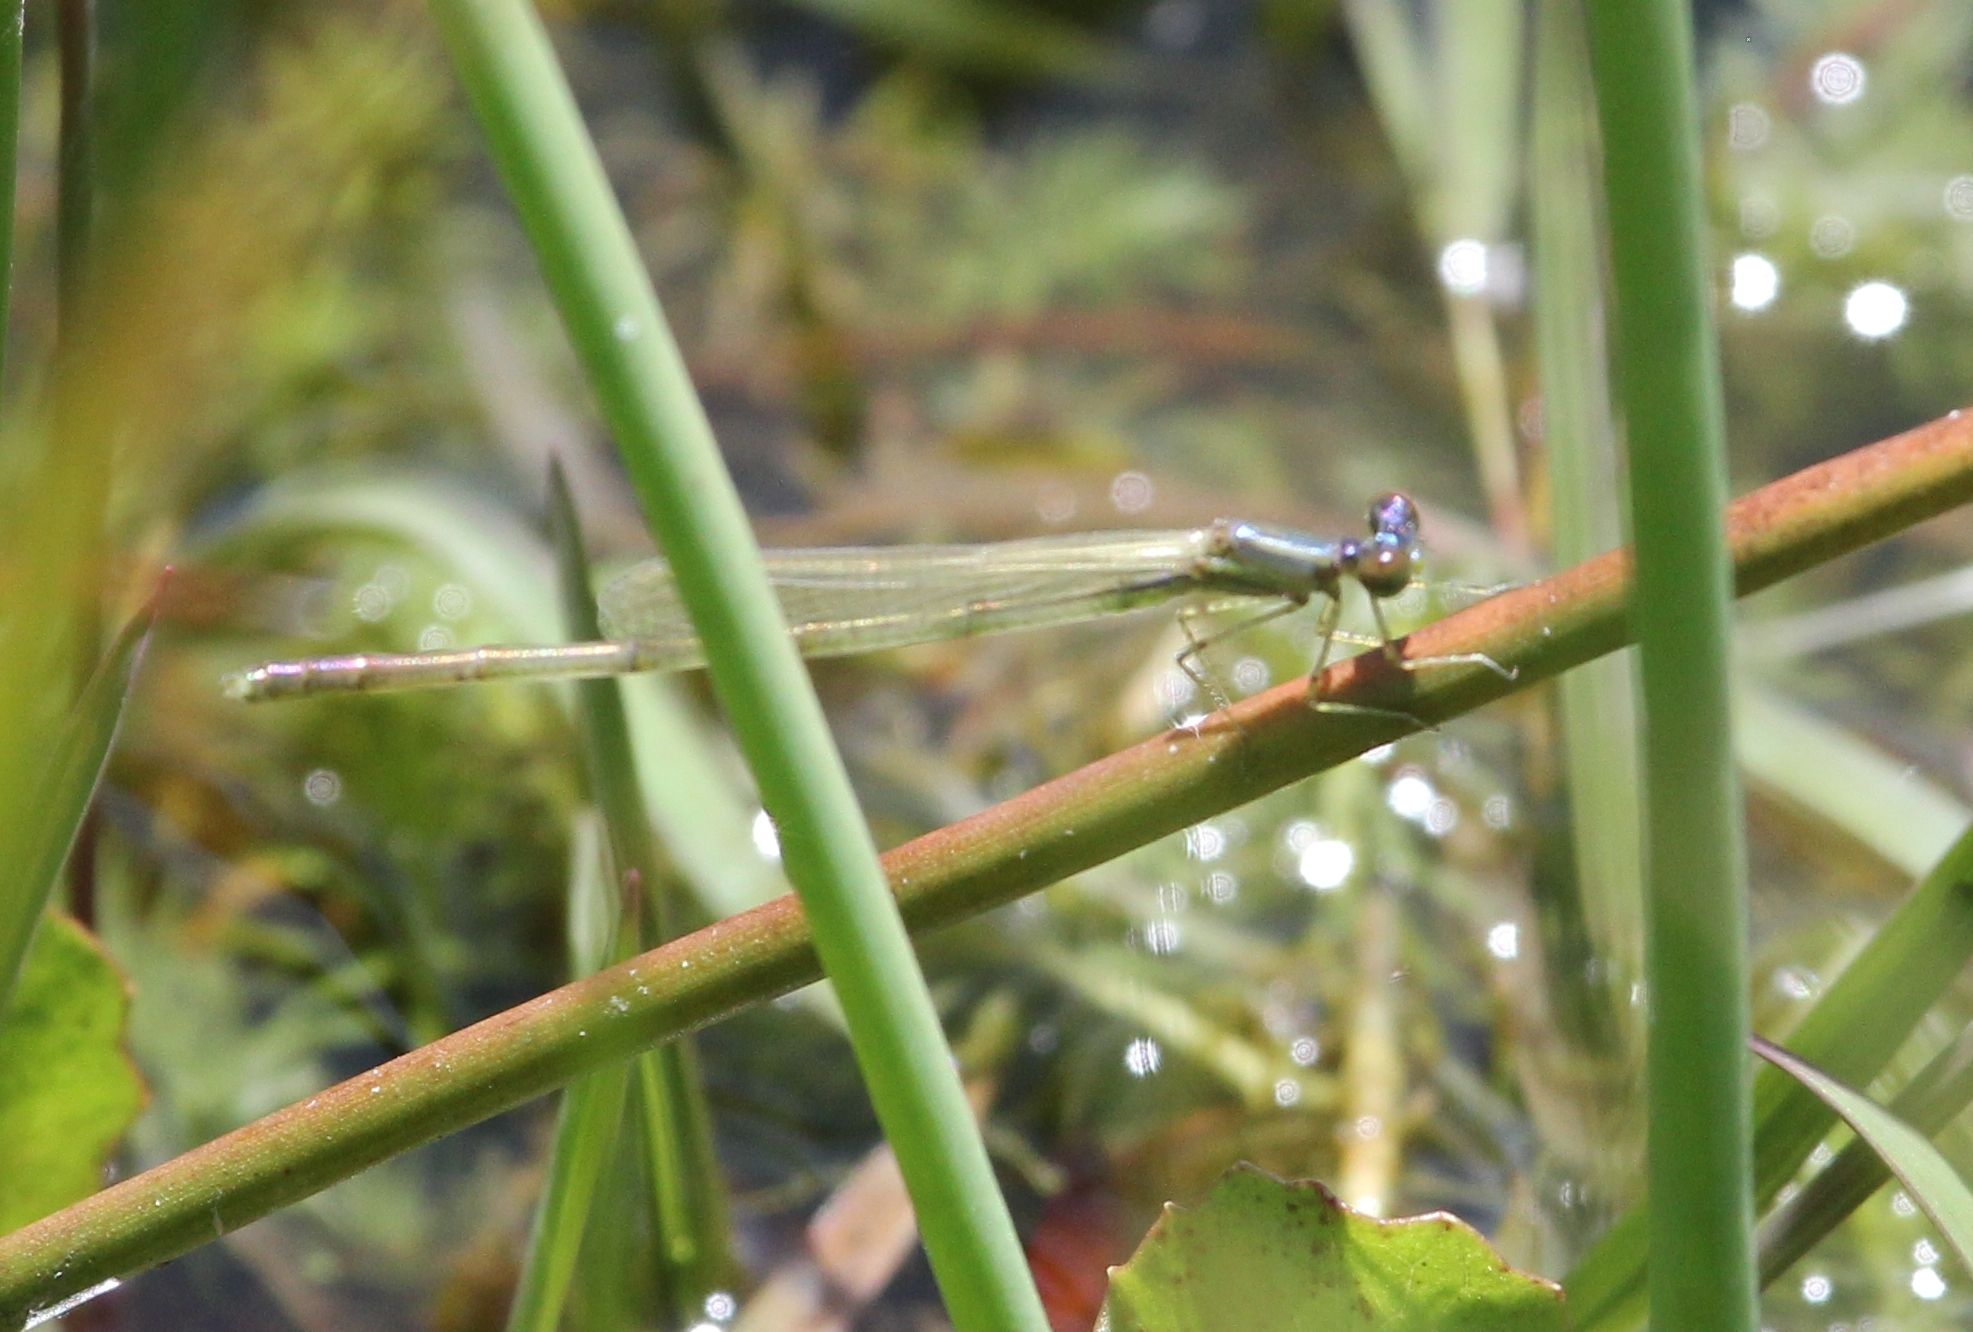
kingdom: Animalia
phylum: Arthropoda
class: Insecta
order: Odonata
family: Coenagrionidae
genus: Nehalennia
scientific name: Nehalennia integricollis
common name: Southern sprite
